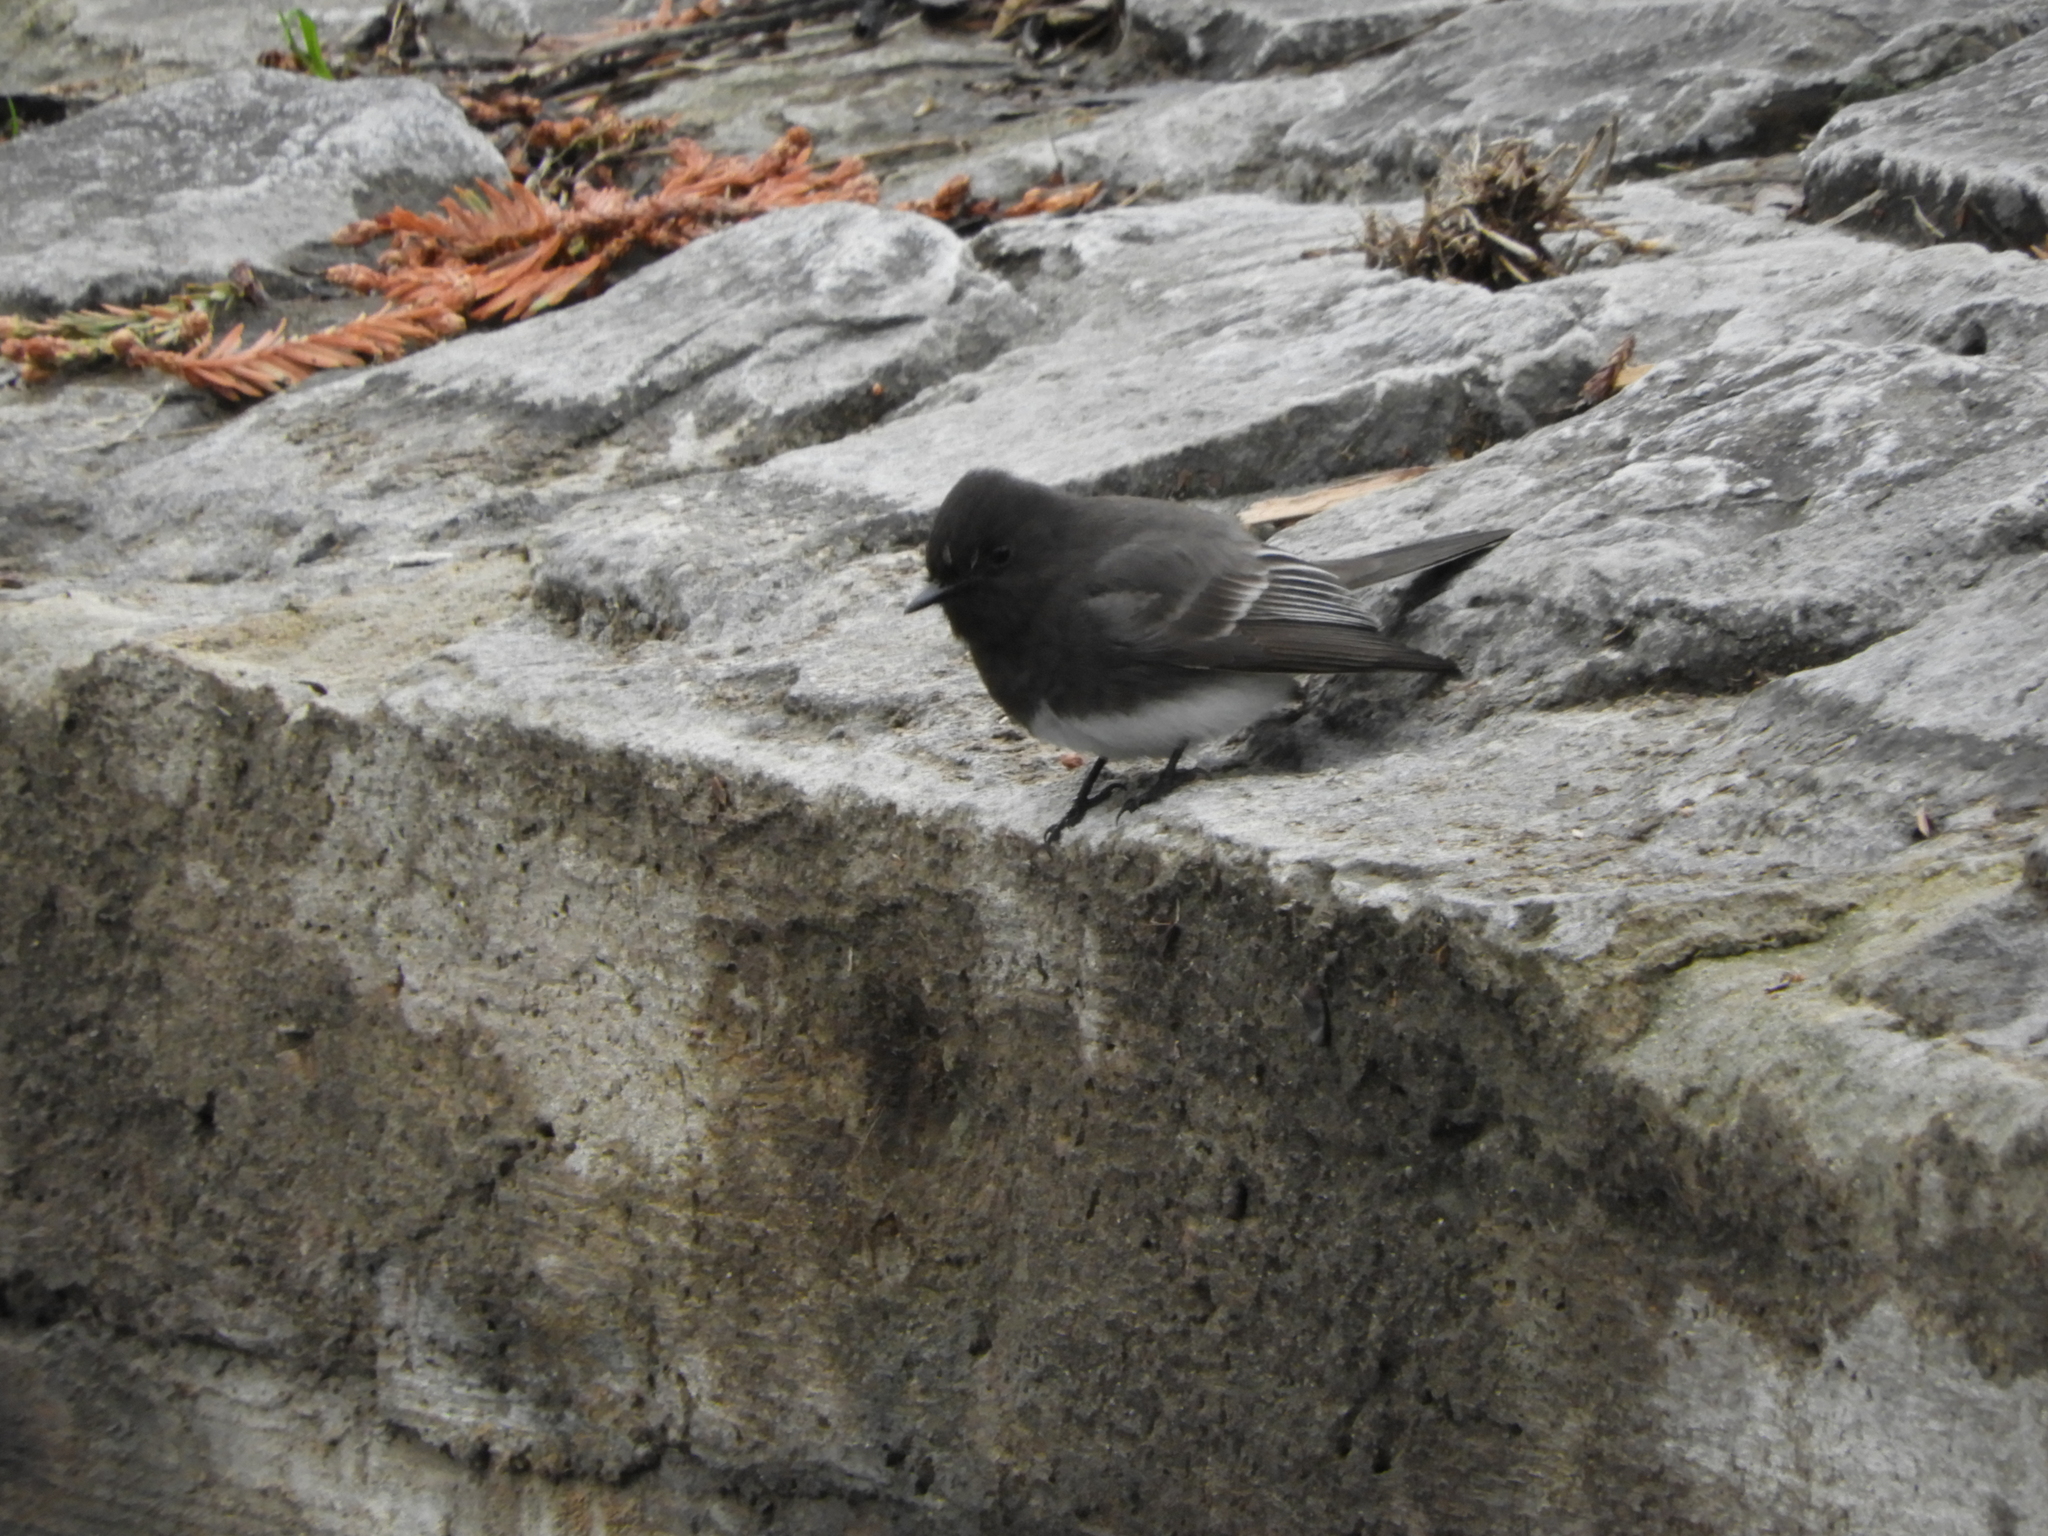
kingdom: Animalia
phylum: Chordata
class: Aves
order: Passeriformes
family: Tyrannidae
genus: Sayornis
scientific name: Sayornis nigricans
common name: Black phoebe
